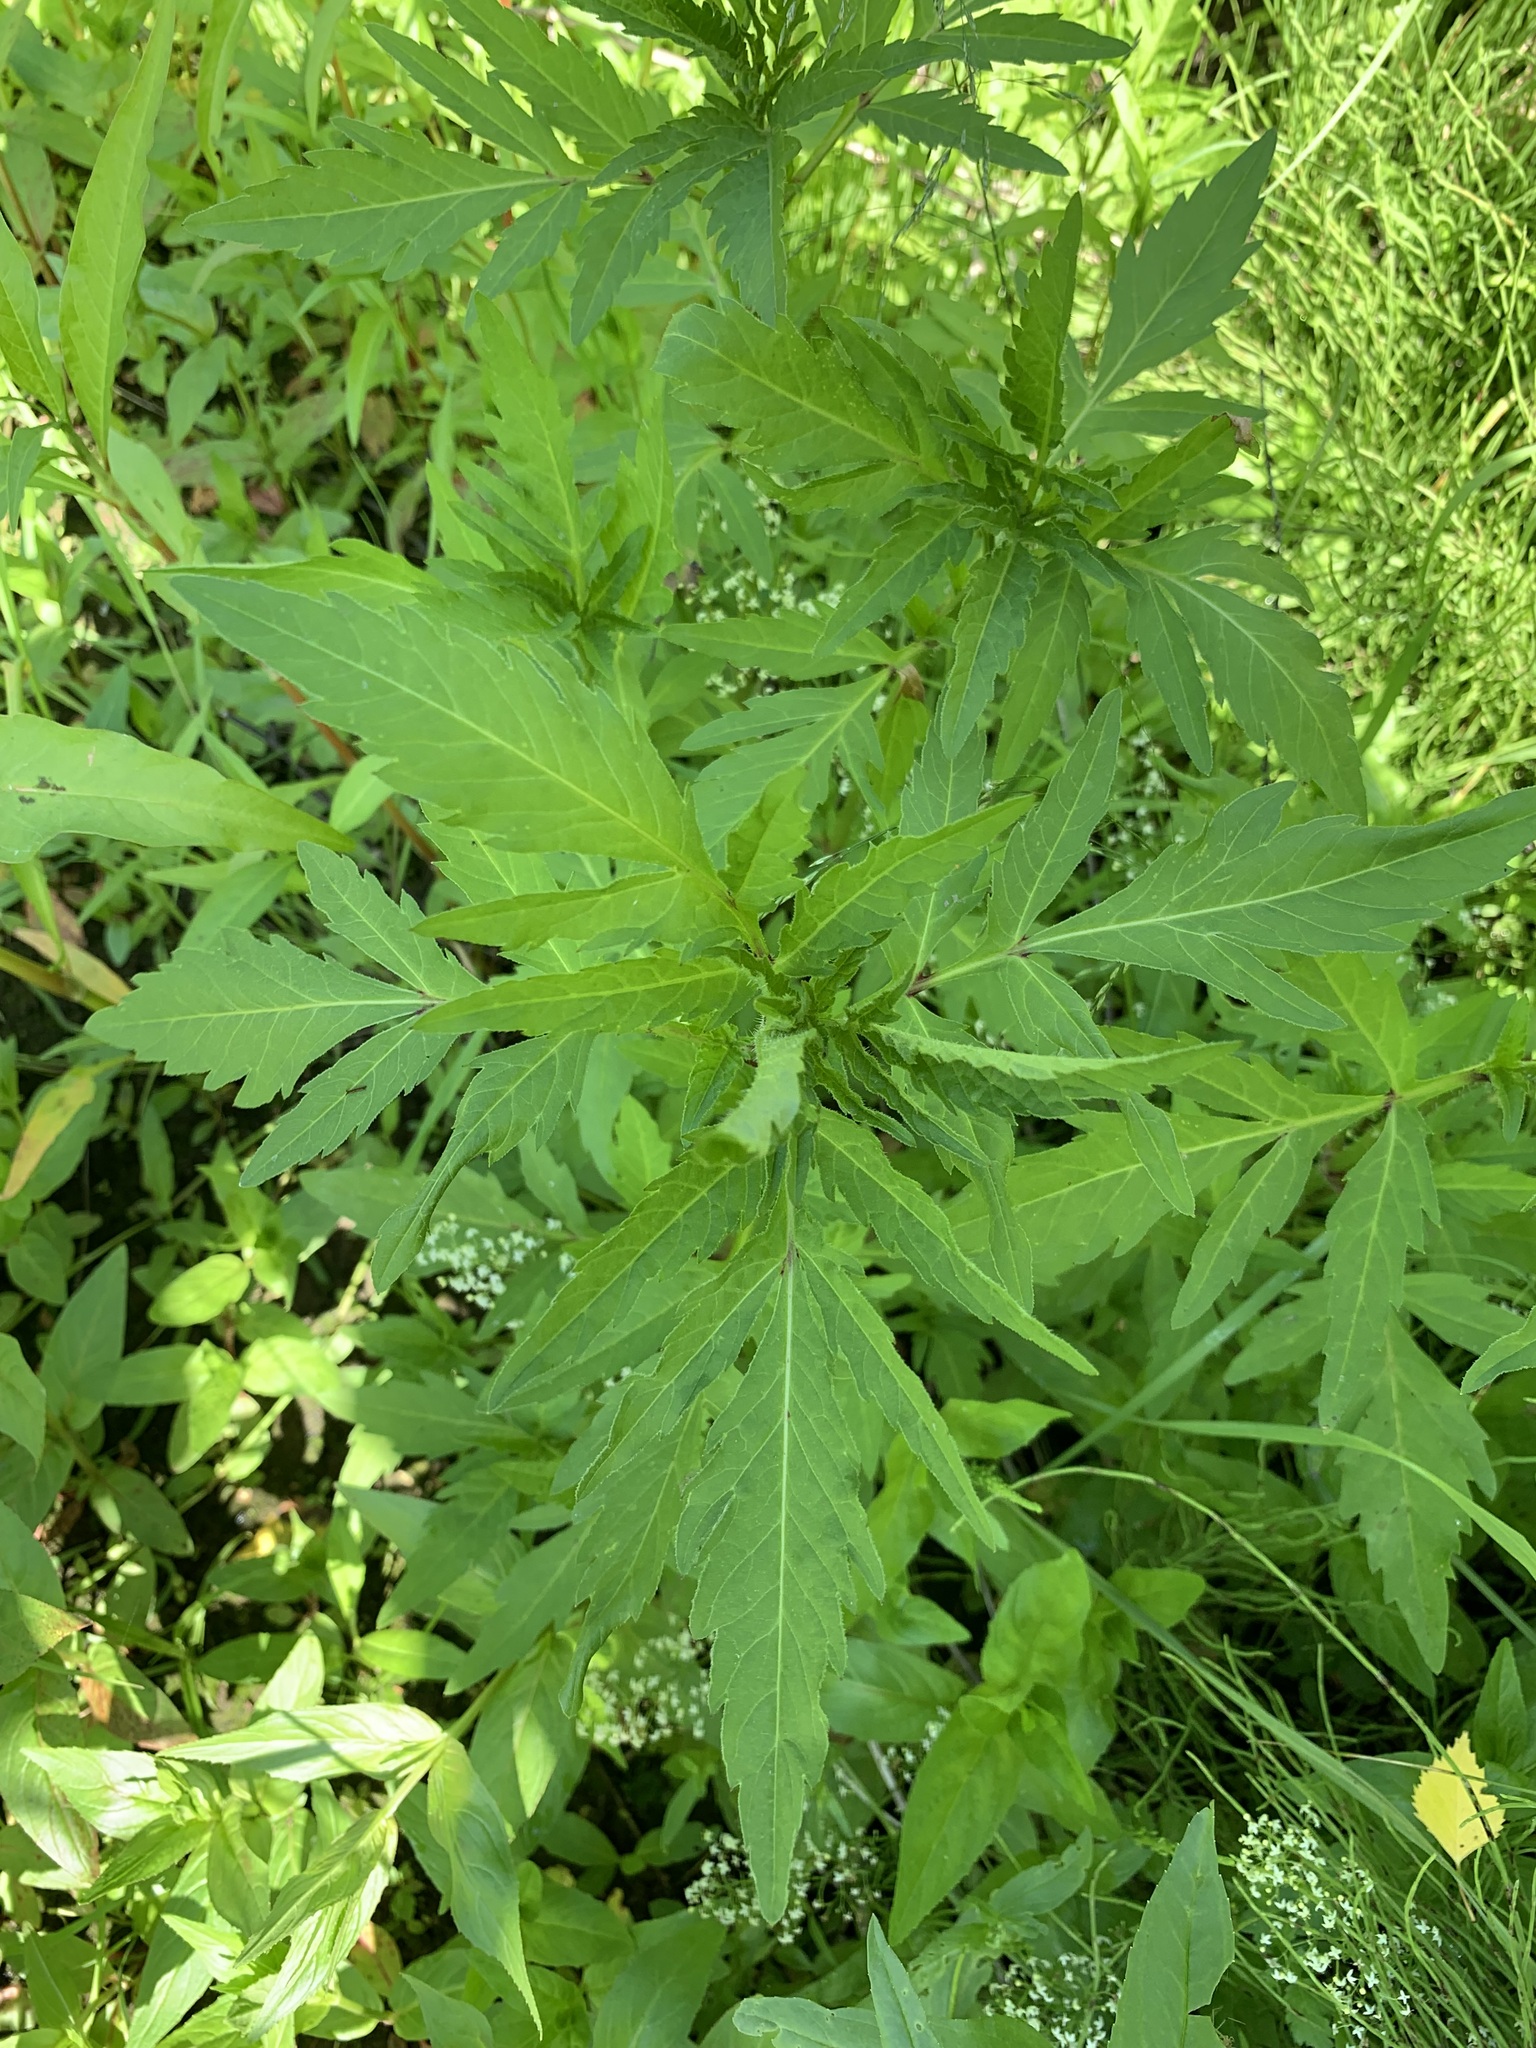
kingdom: Plantae
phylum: Tracheophyta
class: Magnoliopsida
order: Asterales
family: Asteraceae
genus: Bidens
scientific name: Bidens tripartita
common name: Trifid bur-marigold
